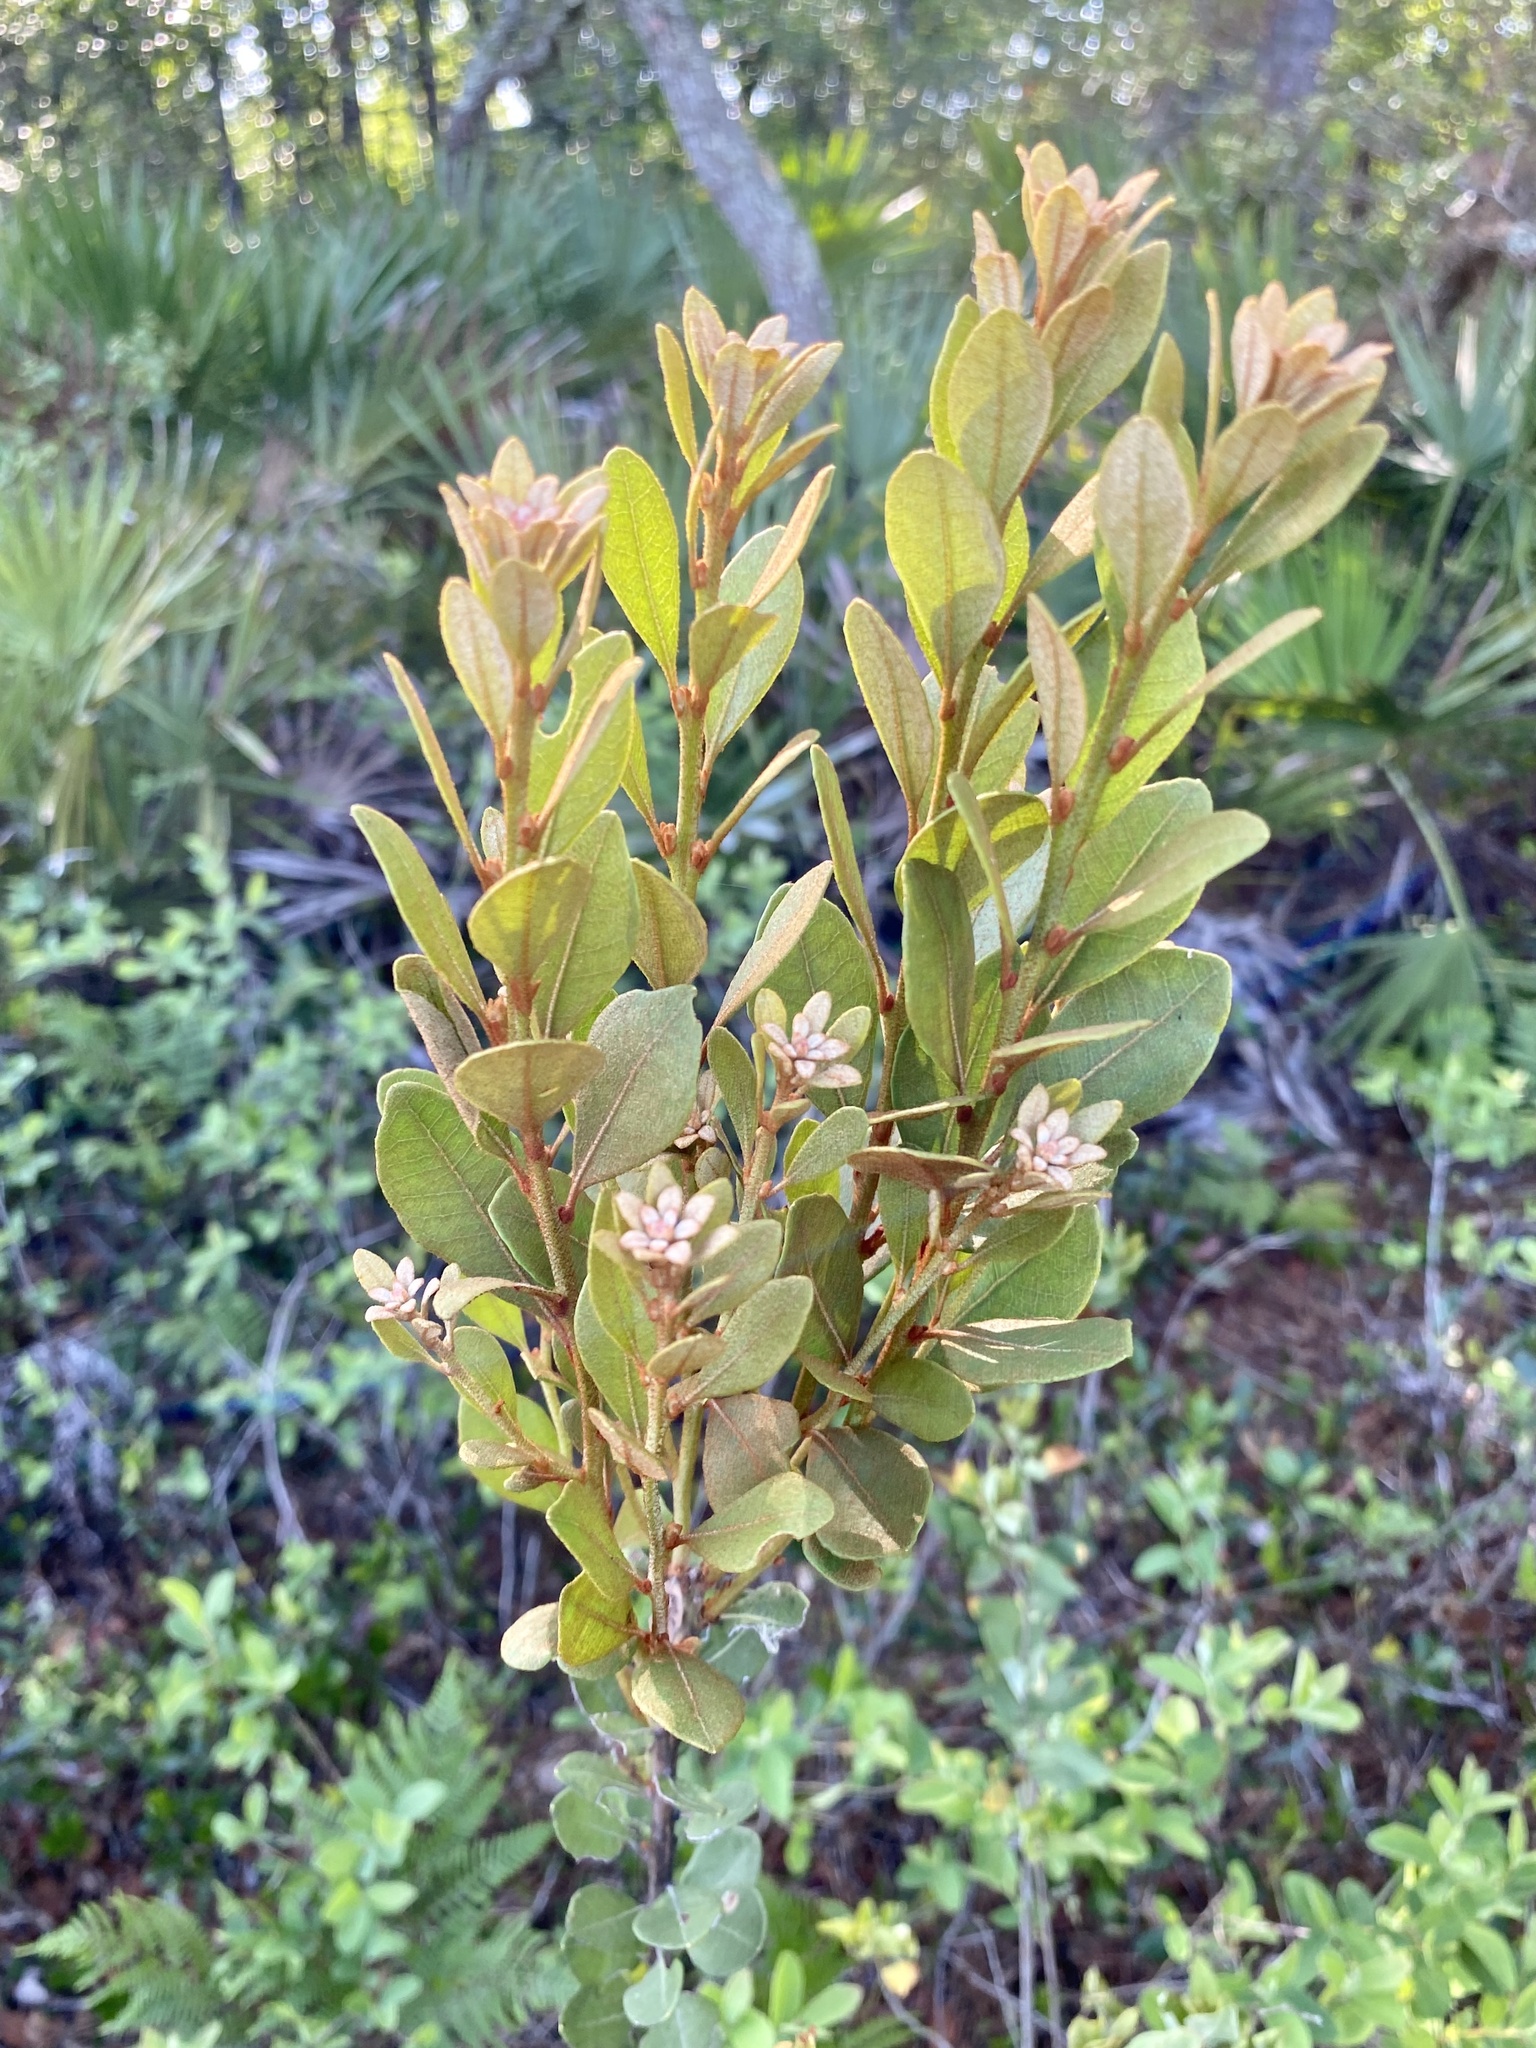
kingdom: Plantae
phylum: Tracheophyta
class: Magnoliopsida
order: Ericales
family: Ericaceae
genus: Lyonia
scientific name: Lyonia fruticosa
